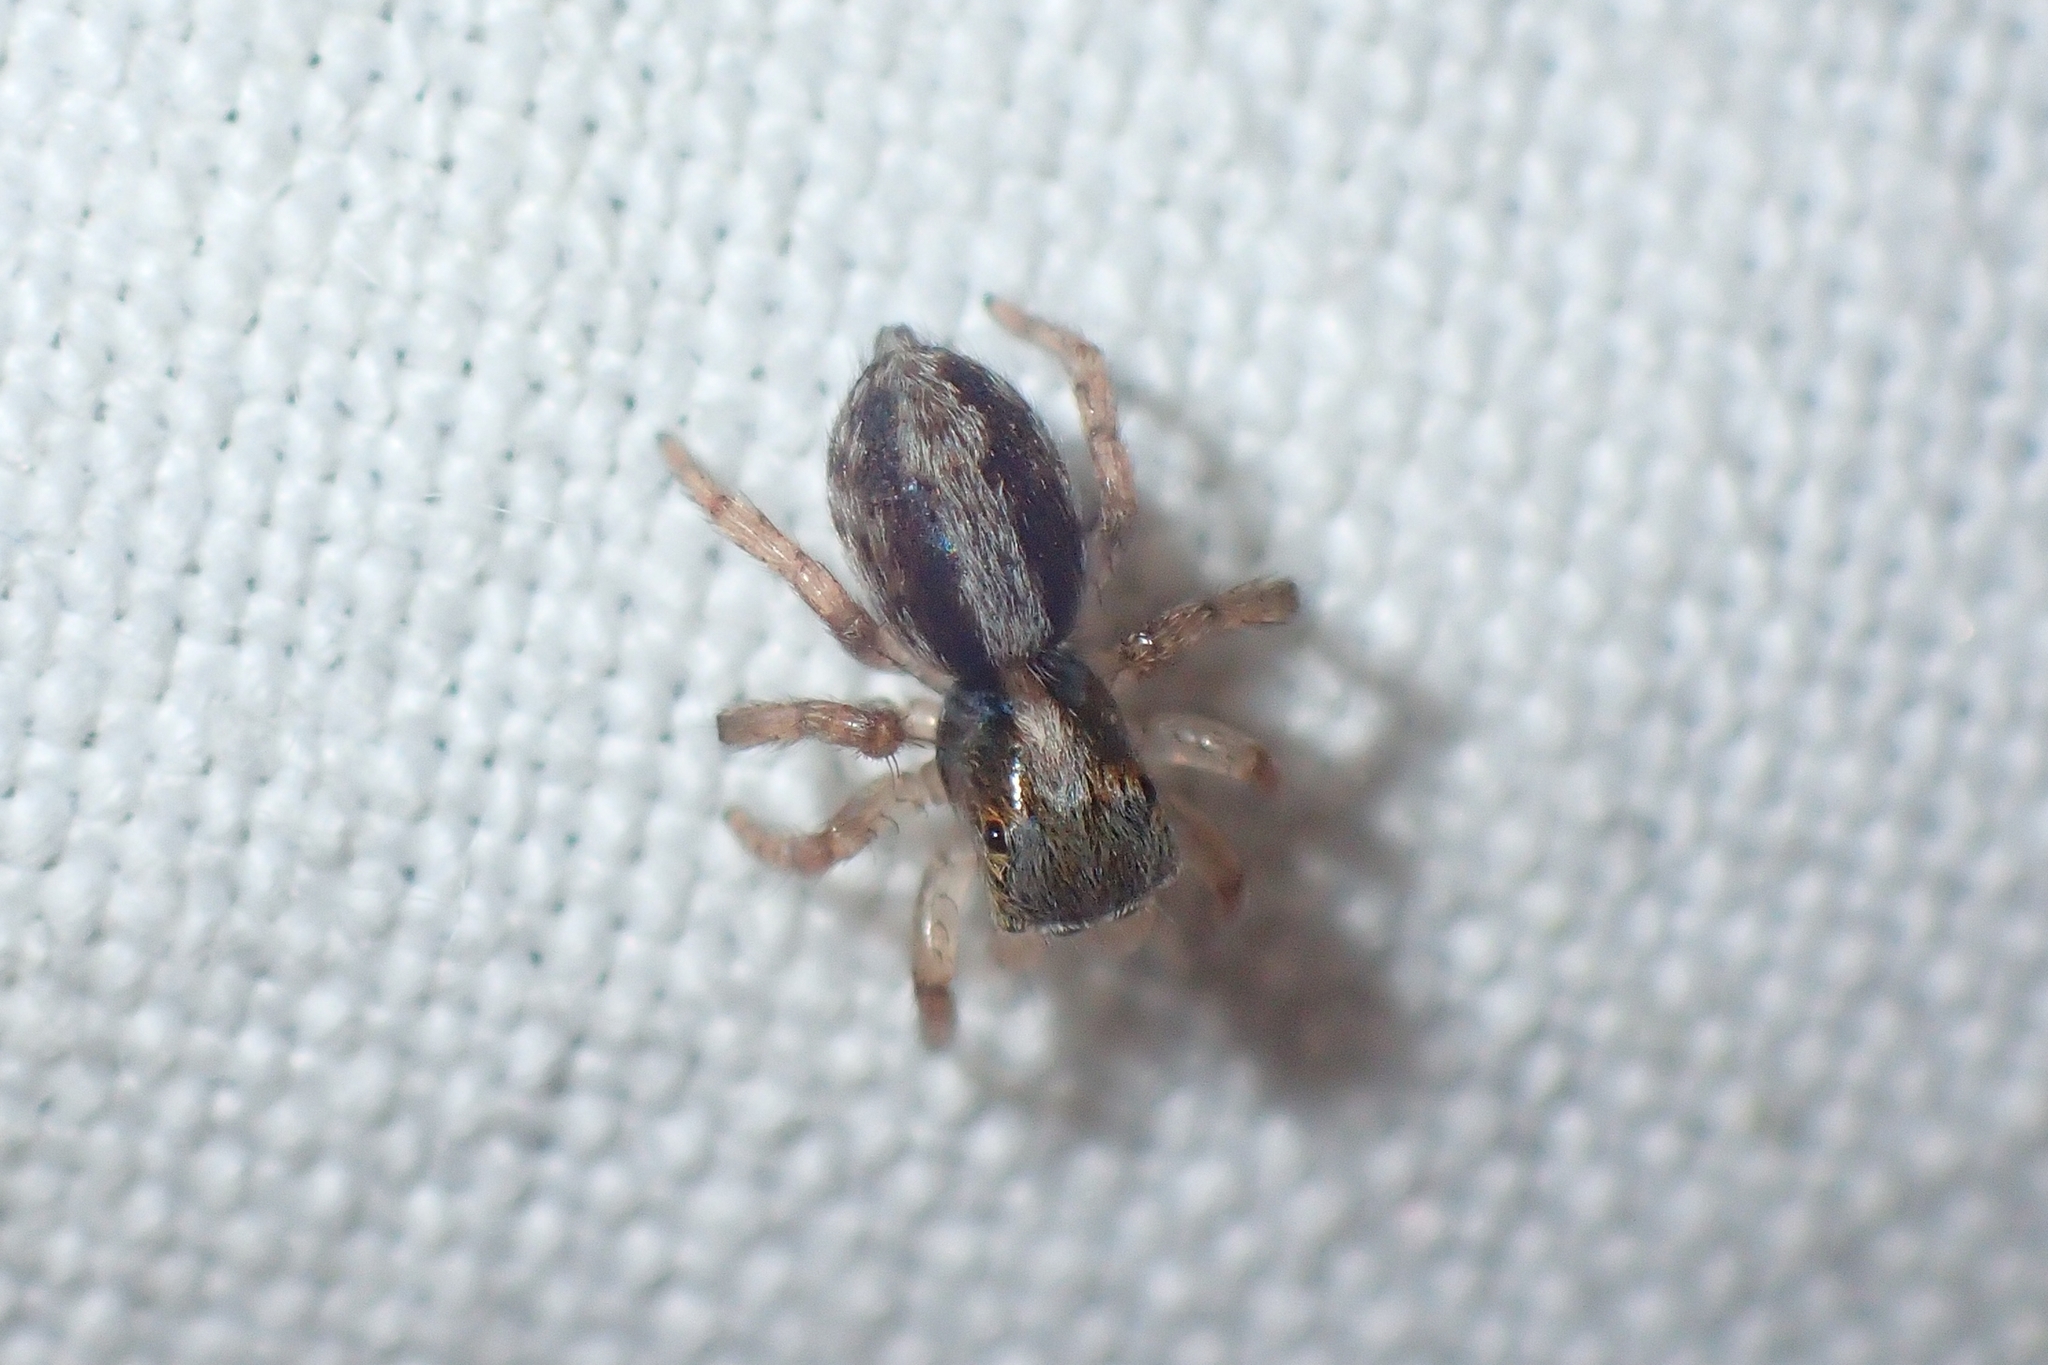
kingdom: Animalia
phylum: Arthropoda
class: Arachnida
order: Araneae
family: Salticidae
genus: Saitis
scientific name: Saitis barbipes
